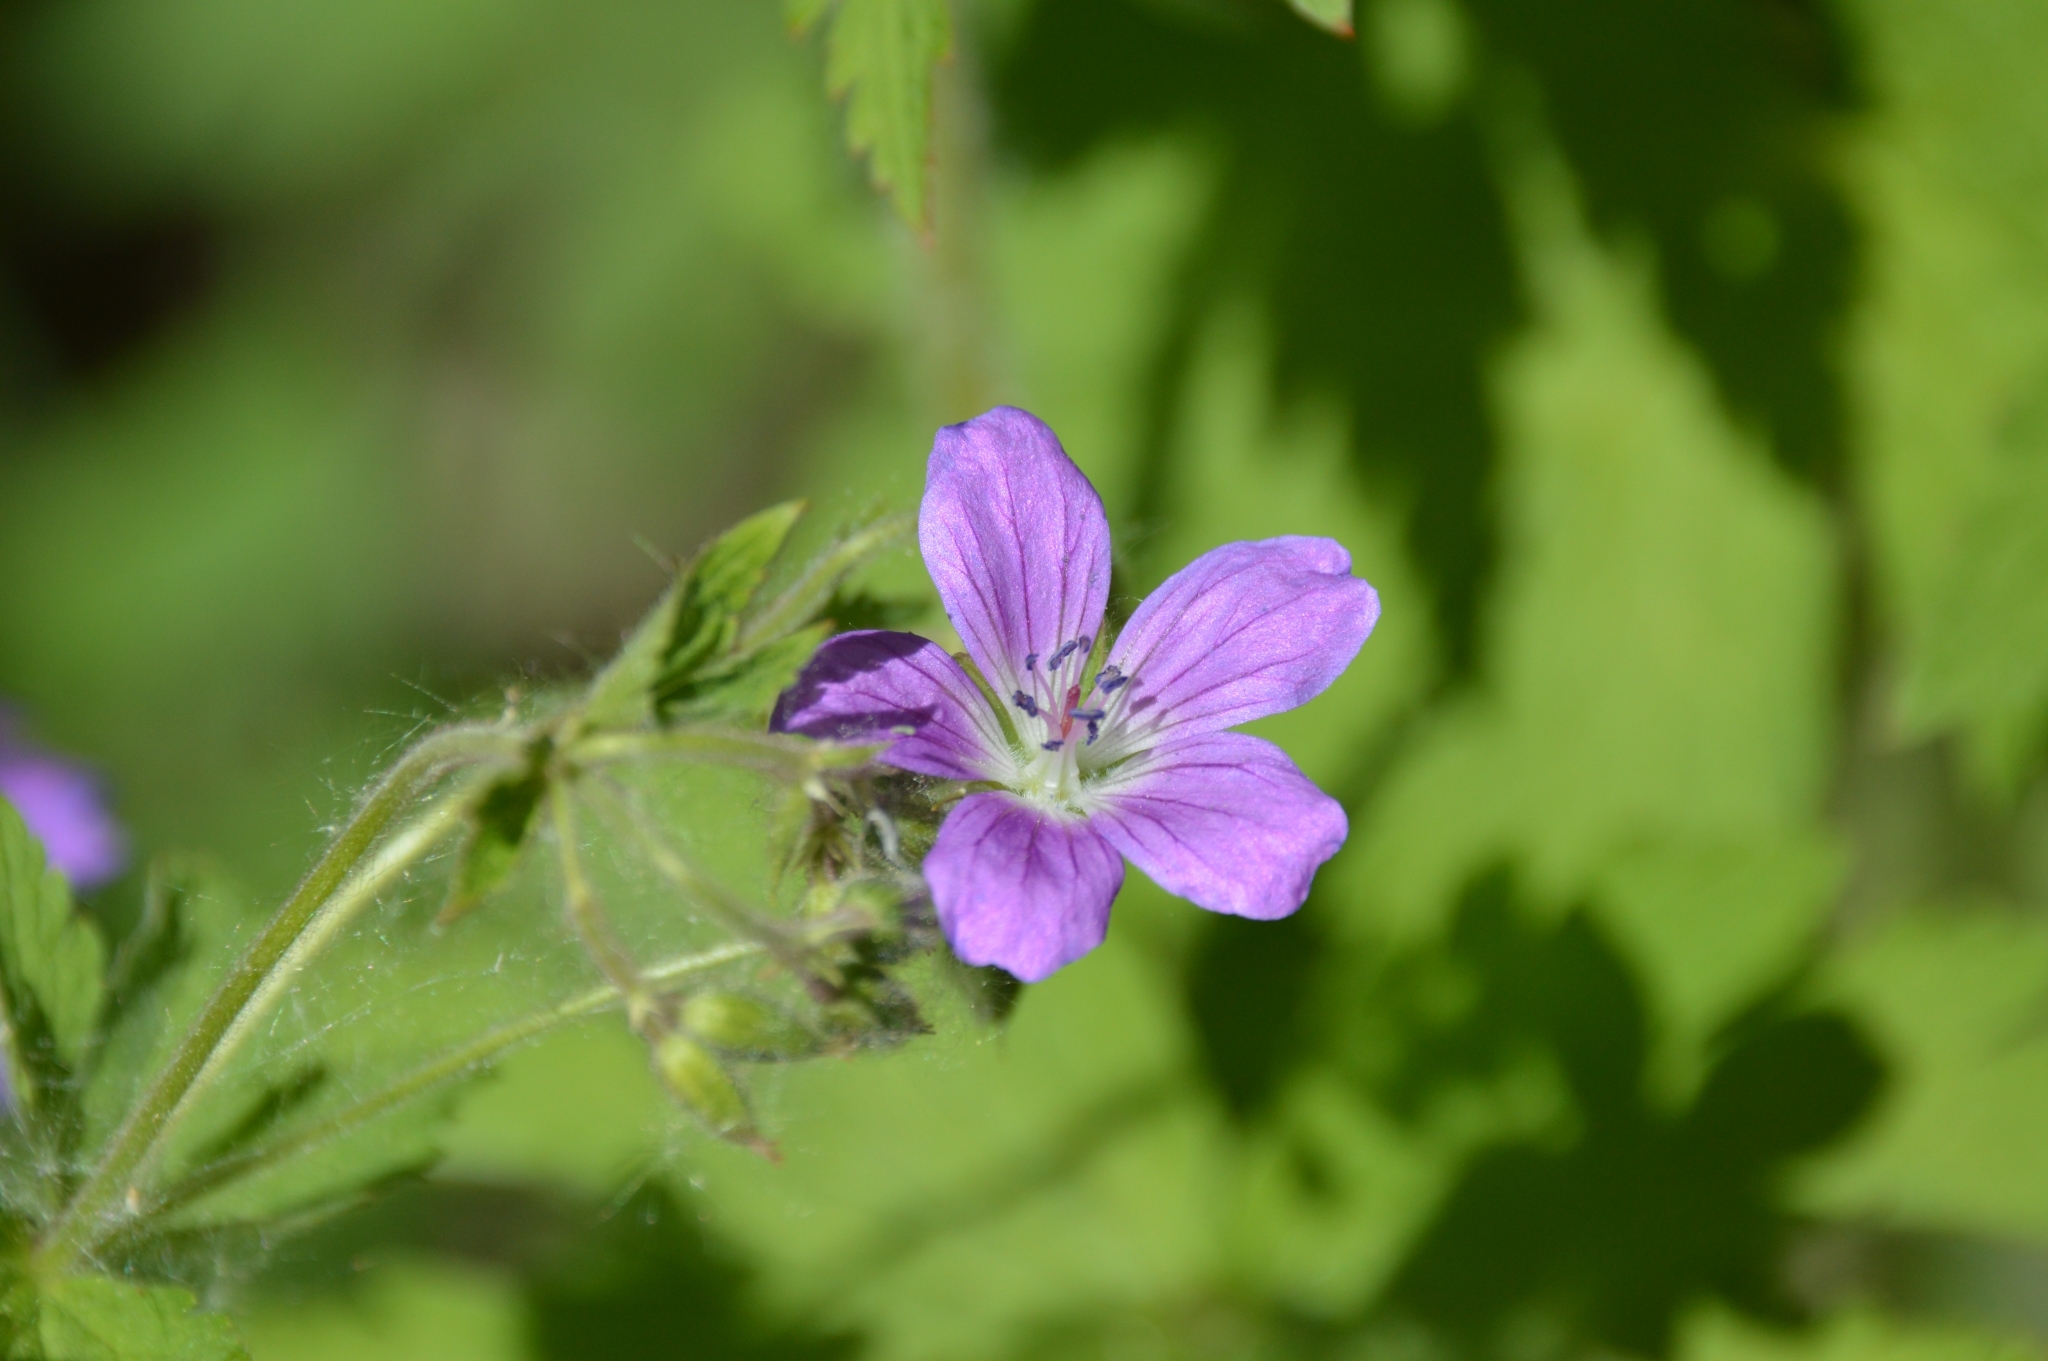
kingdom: Plantae
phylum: Tracheophyta
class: Magnoliopsida
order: Geraniales
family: Geraniaceae
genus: Geranium
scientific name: Geranium sylvaticum
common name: Wood crane's-bill
